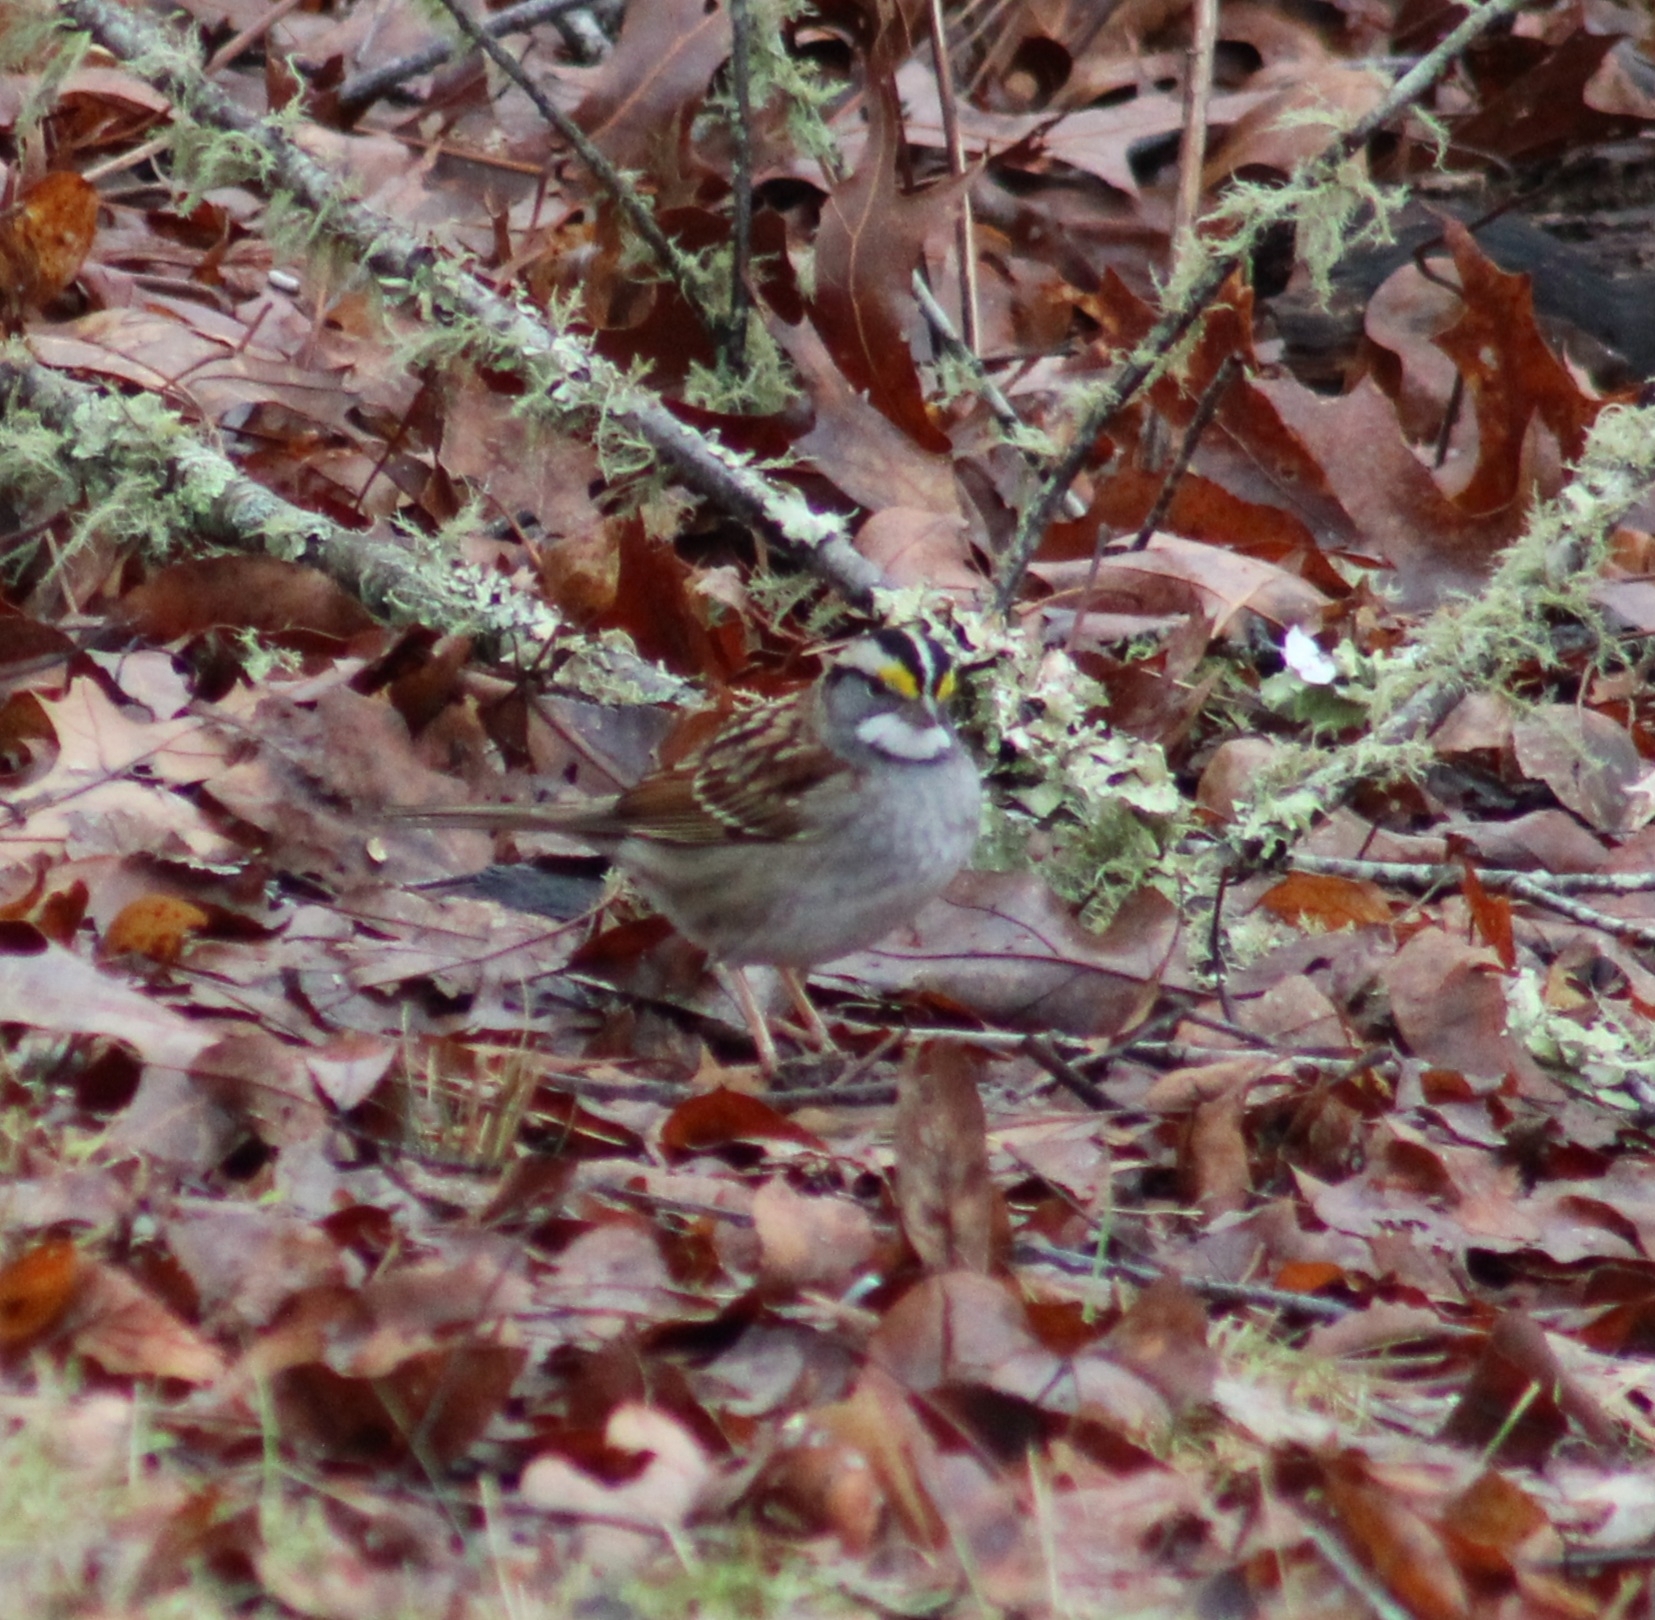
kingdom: Animalia
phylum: Chordata
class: Aves
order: Passeriformes
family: Passerellidae
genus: Zonotrichia
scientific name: Zonotrichia albicollis
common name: White-throated sparrow
